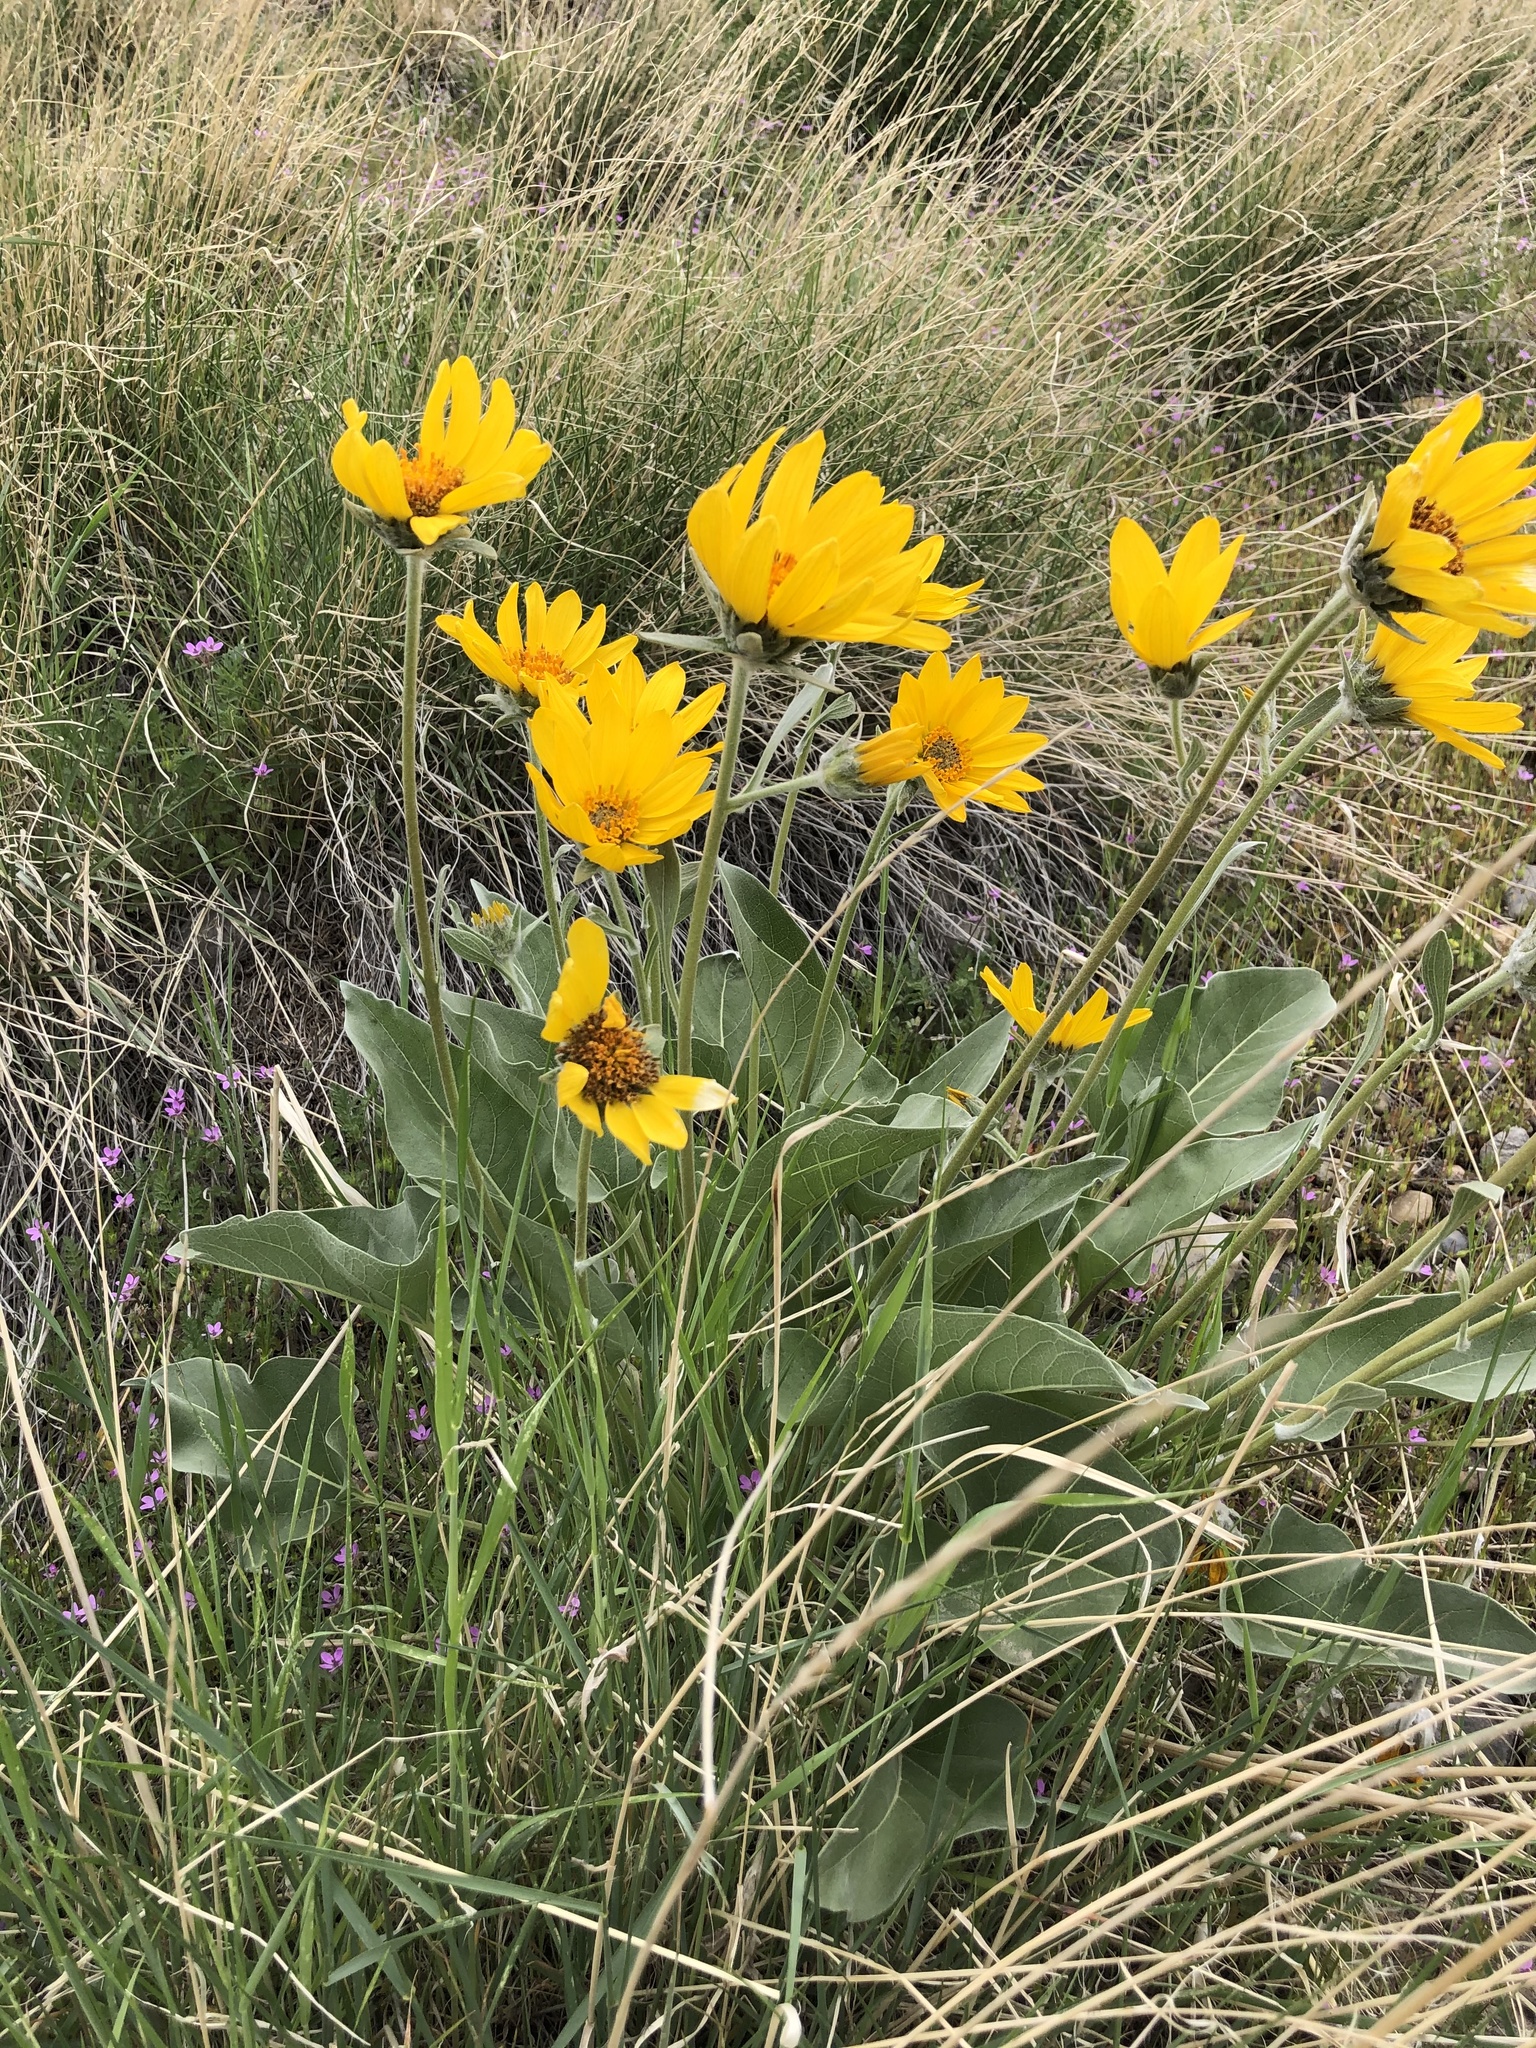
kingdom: Plantae
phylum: Tracheophyta
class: Magnoliopsida
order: Asterales
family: Asteraceae
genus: Wyethia
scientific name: Wyethia sagittata
